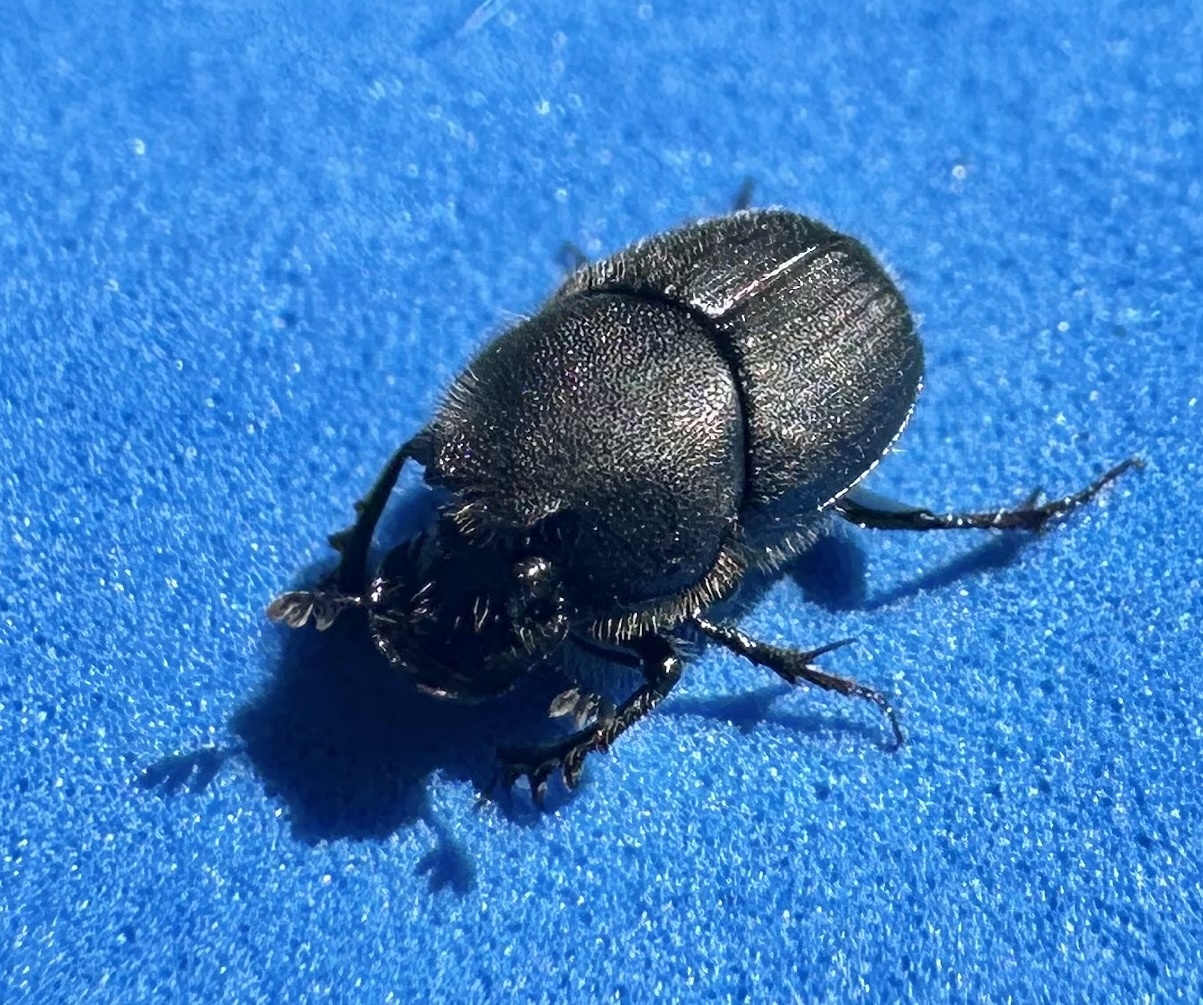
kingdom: Animalia
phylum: Arthropoda
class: Insecta
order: Coleoptera
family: Scarabaeidae
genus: Onthophagus
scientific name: Onthophagus hecate
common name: Scooped scarab
